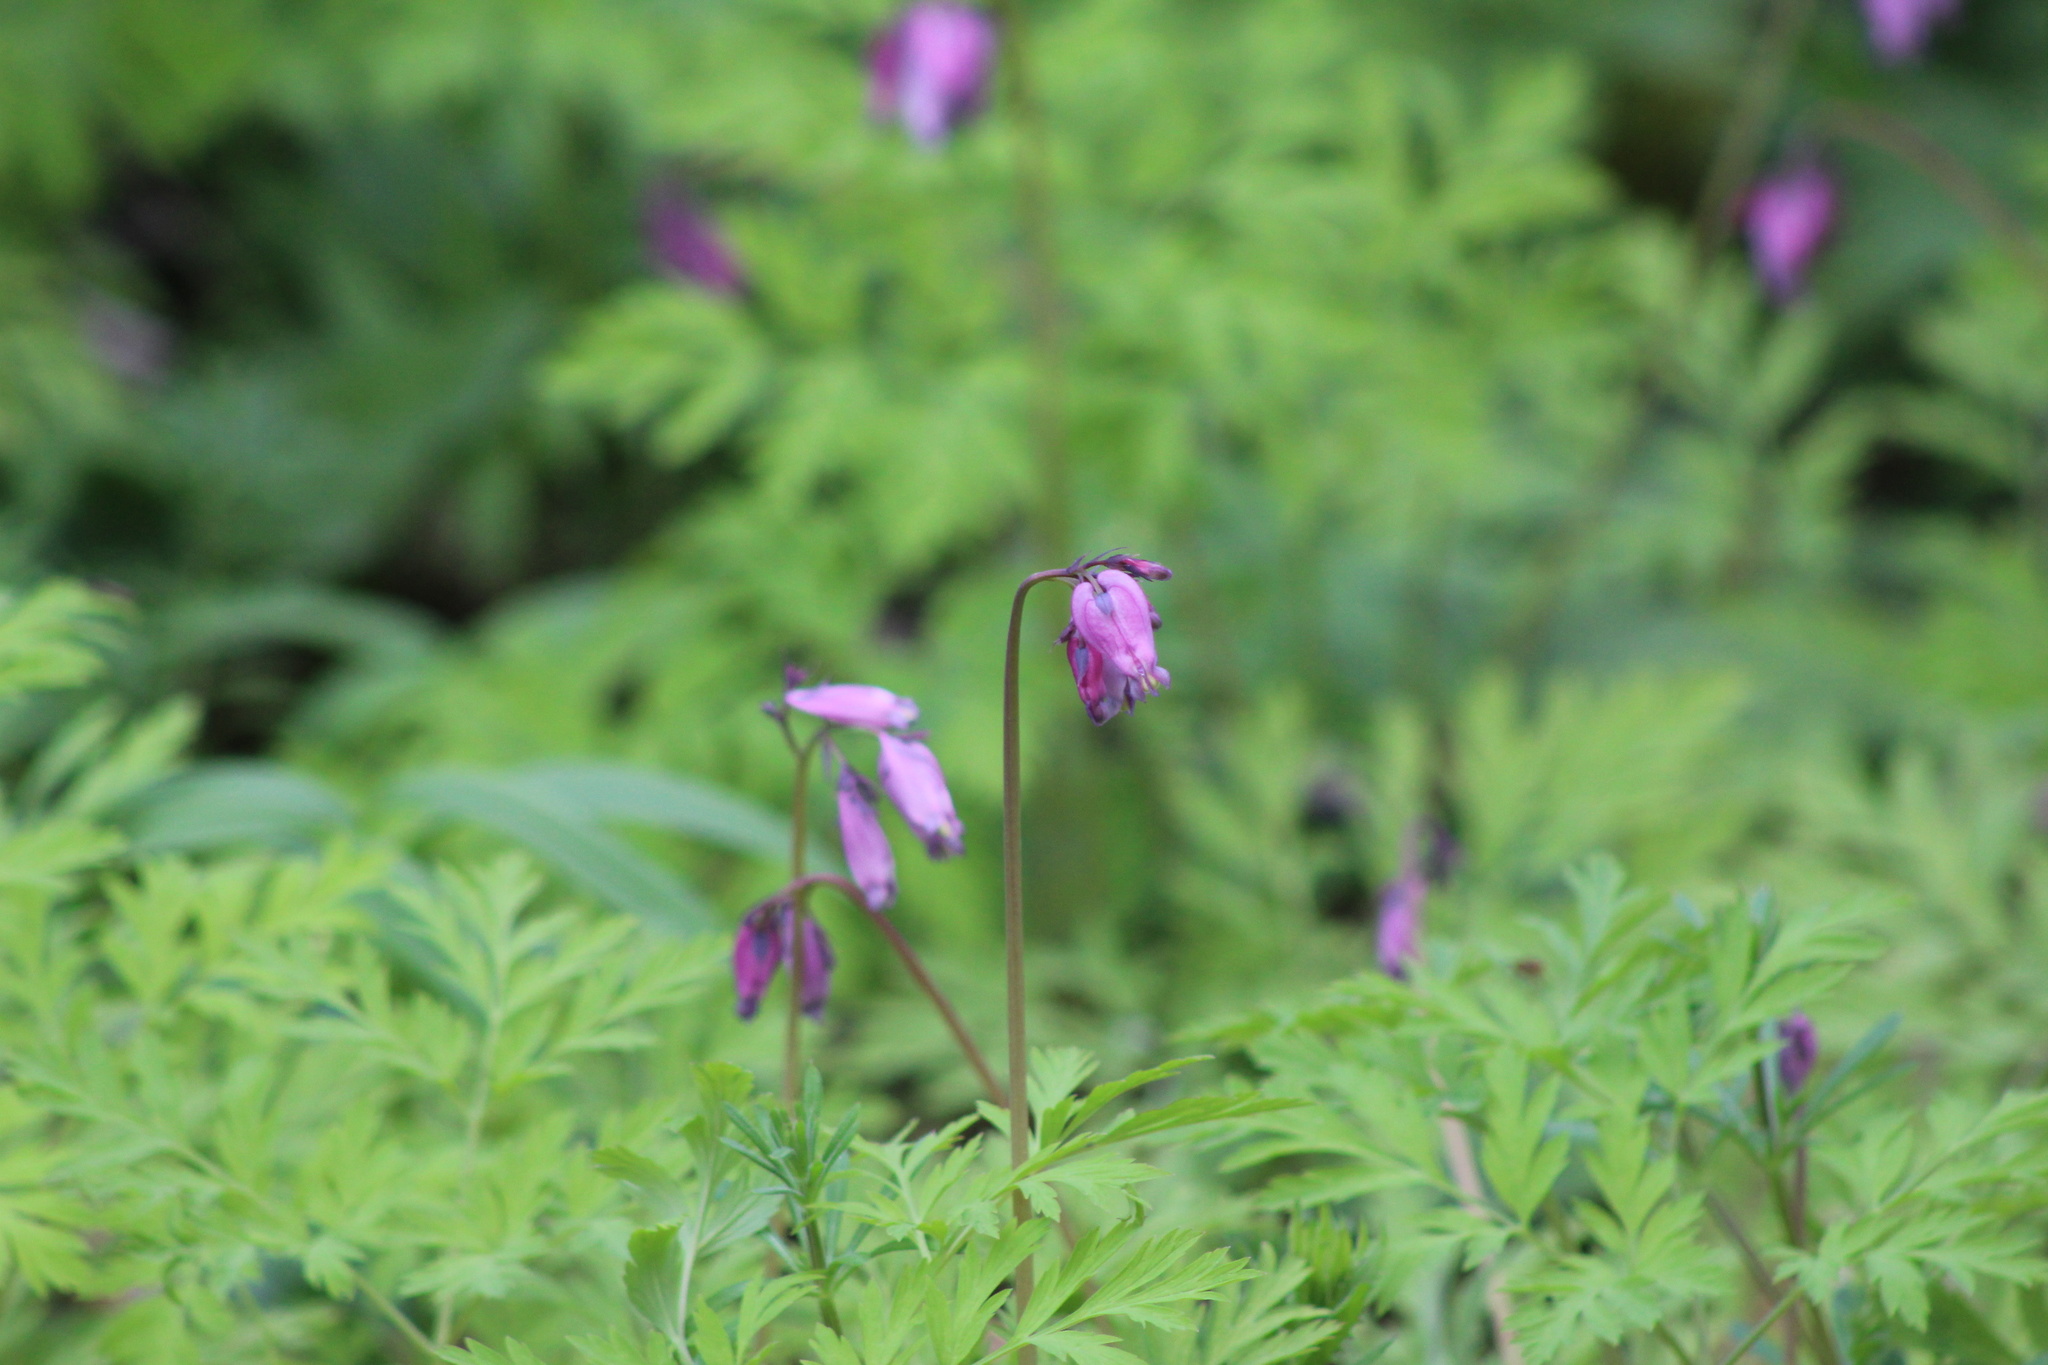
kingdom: Plantae
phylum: Tracheophyta
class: Magnoliopsida
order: Ranunculales
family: Papaveraceae
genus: Dicentra
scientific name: Dicentra formosa
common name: Bleeding-heart
